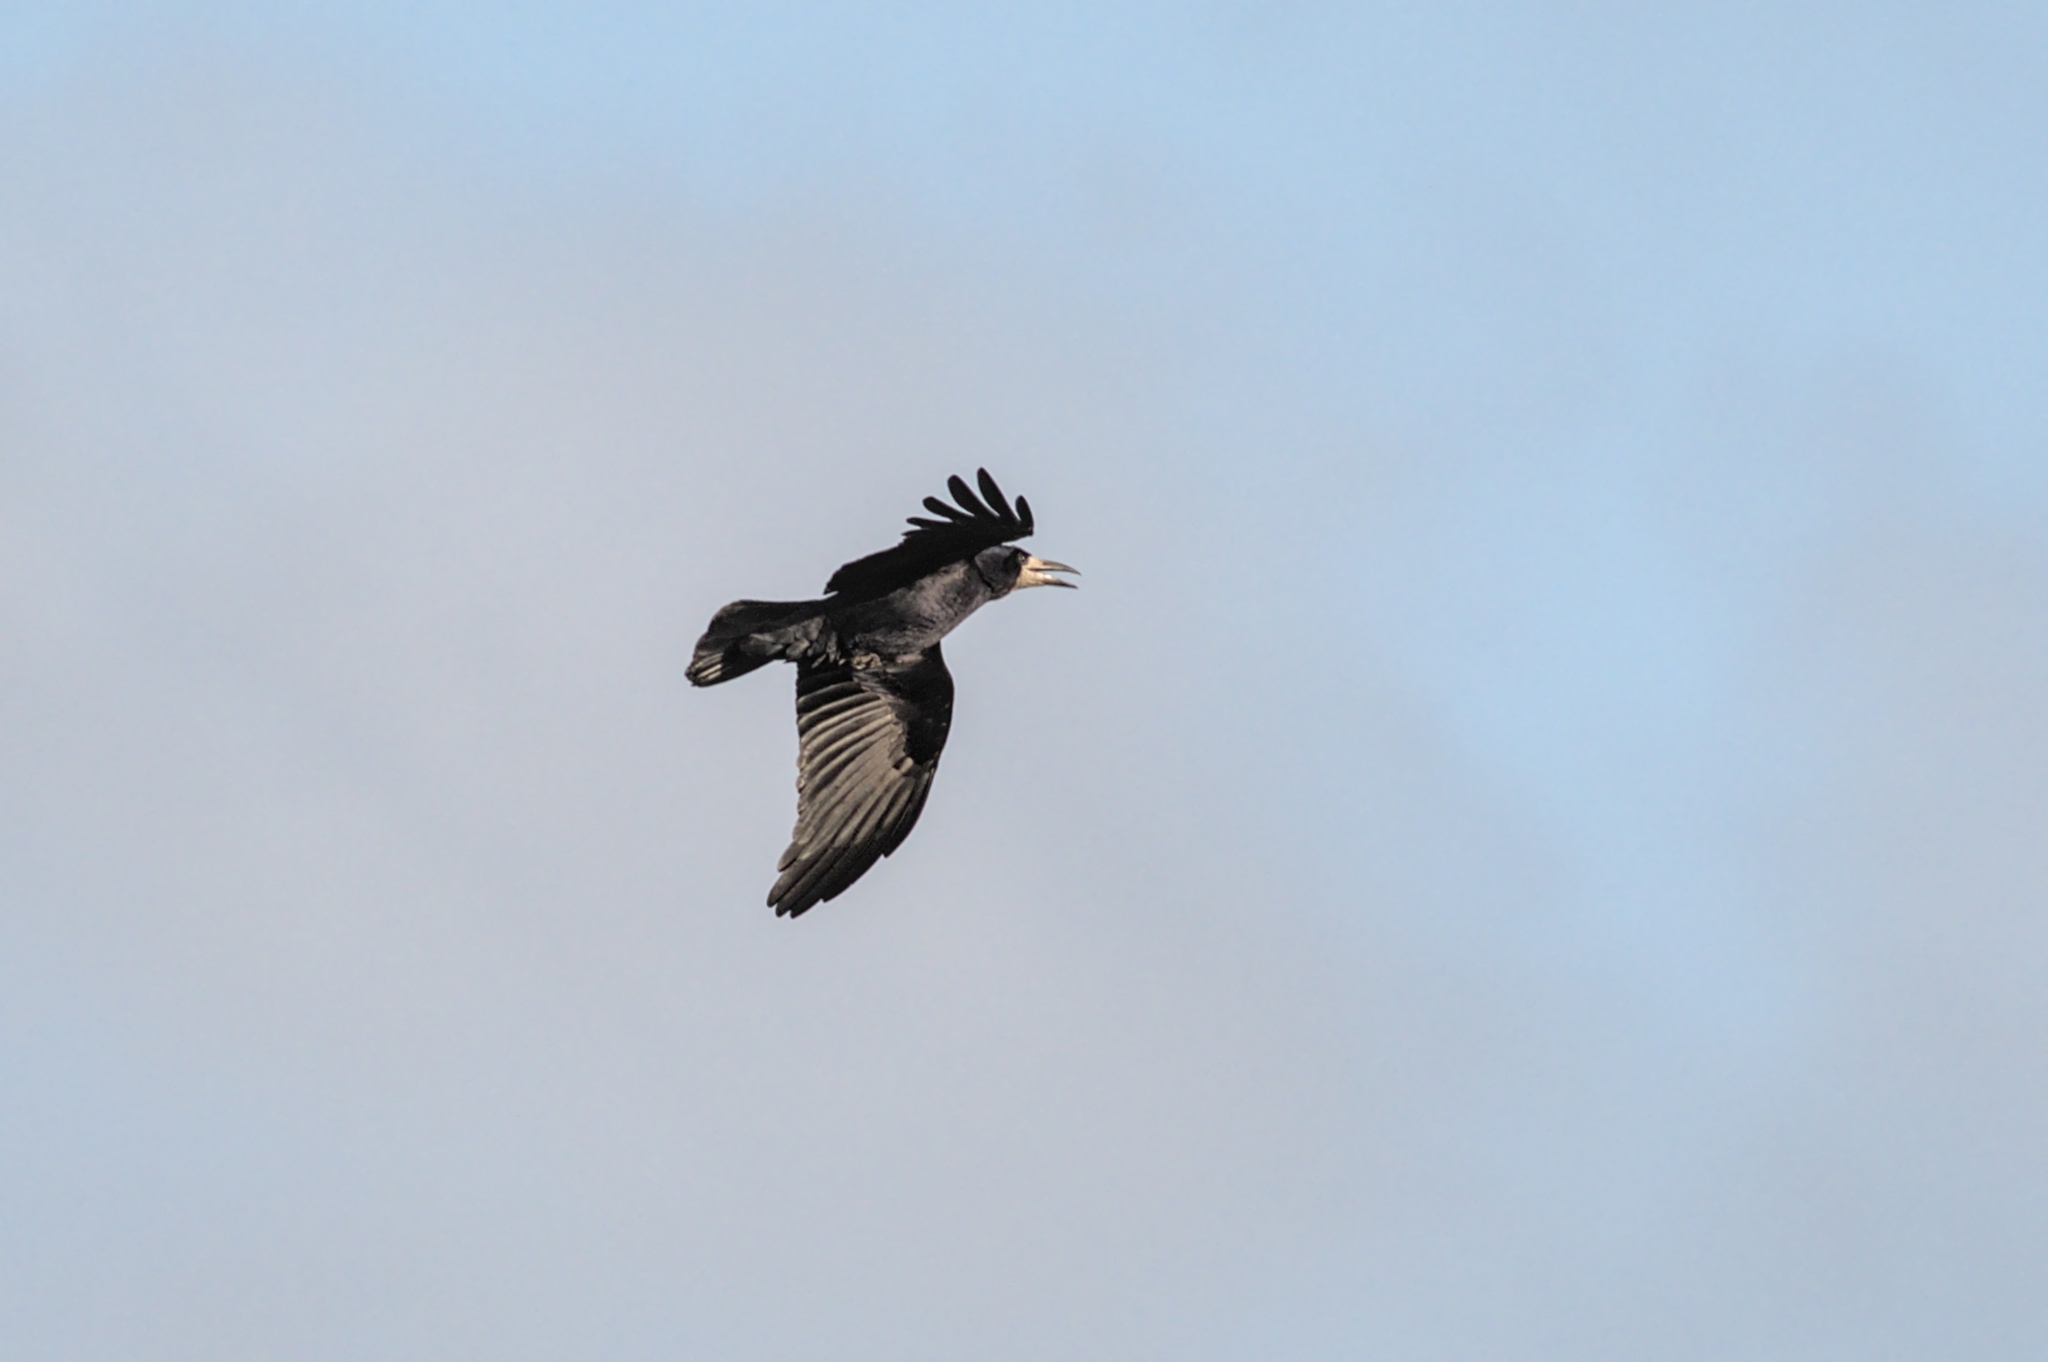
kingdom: Animalia
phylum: Chordata
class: Aves
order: Passeriformes
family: Corvidae
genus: Corvus
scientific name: Corvus frugilegus
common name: Rook
